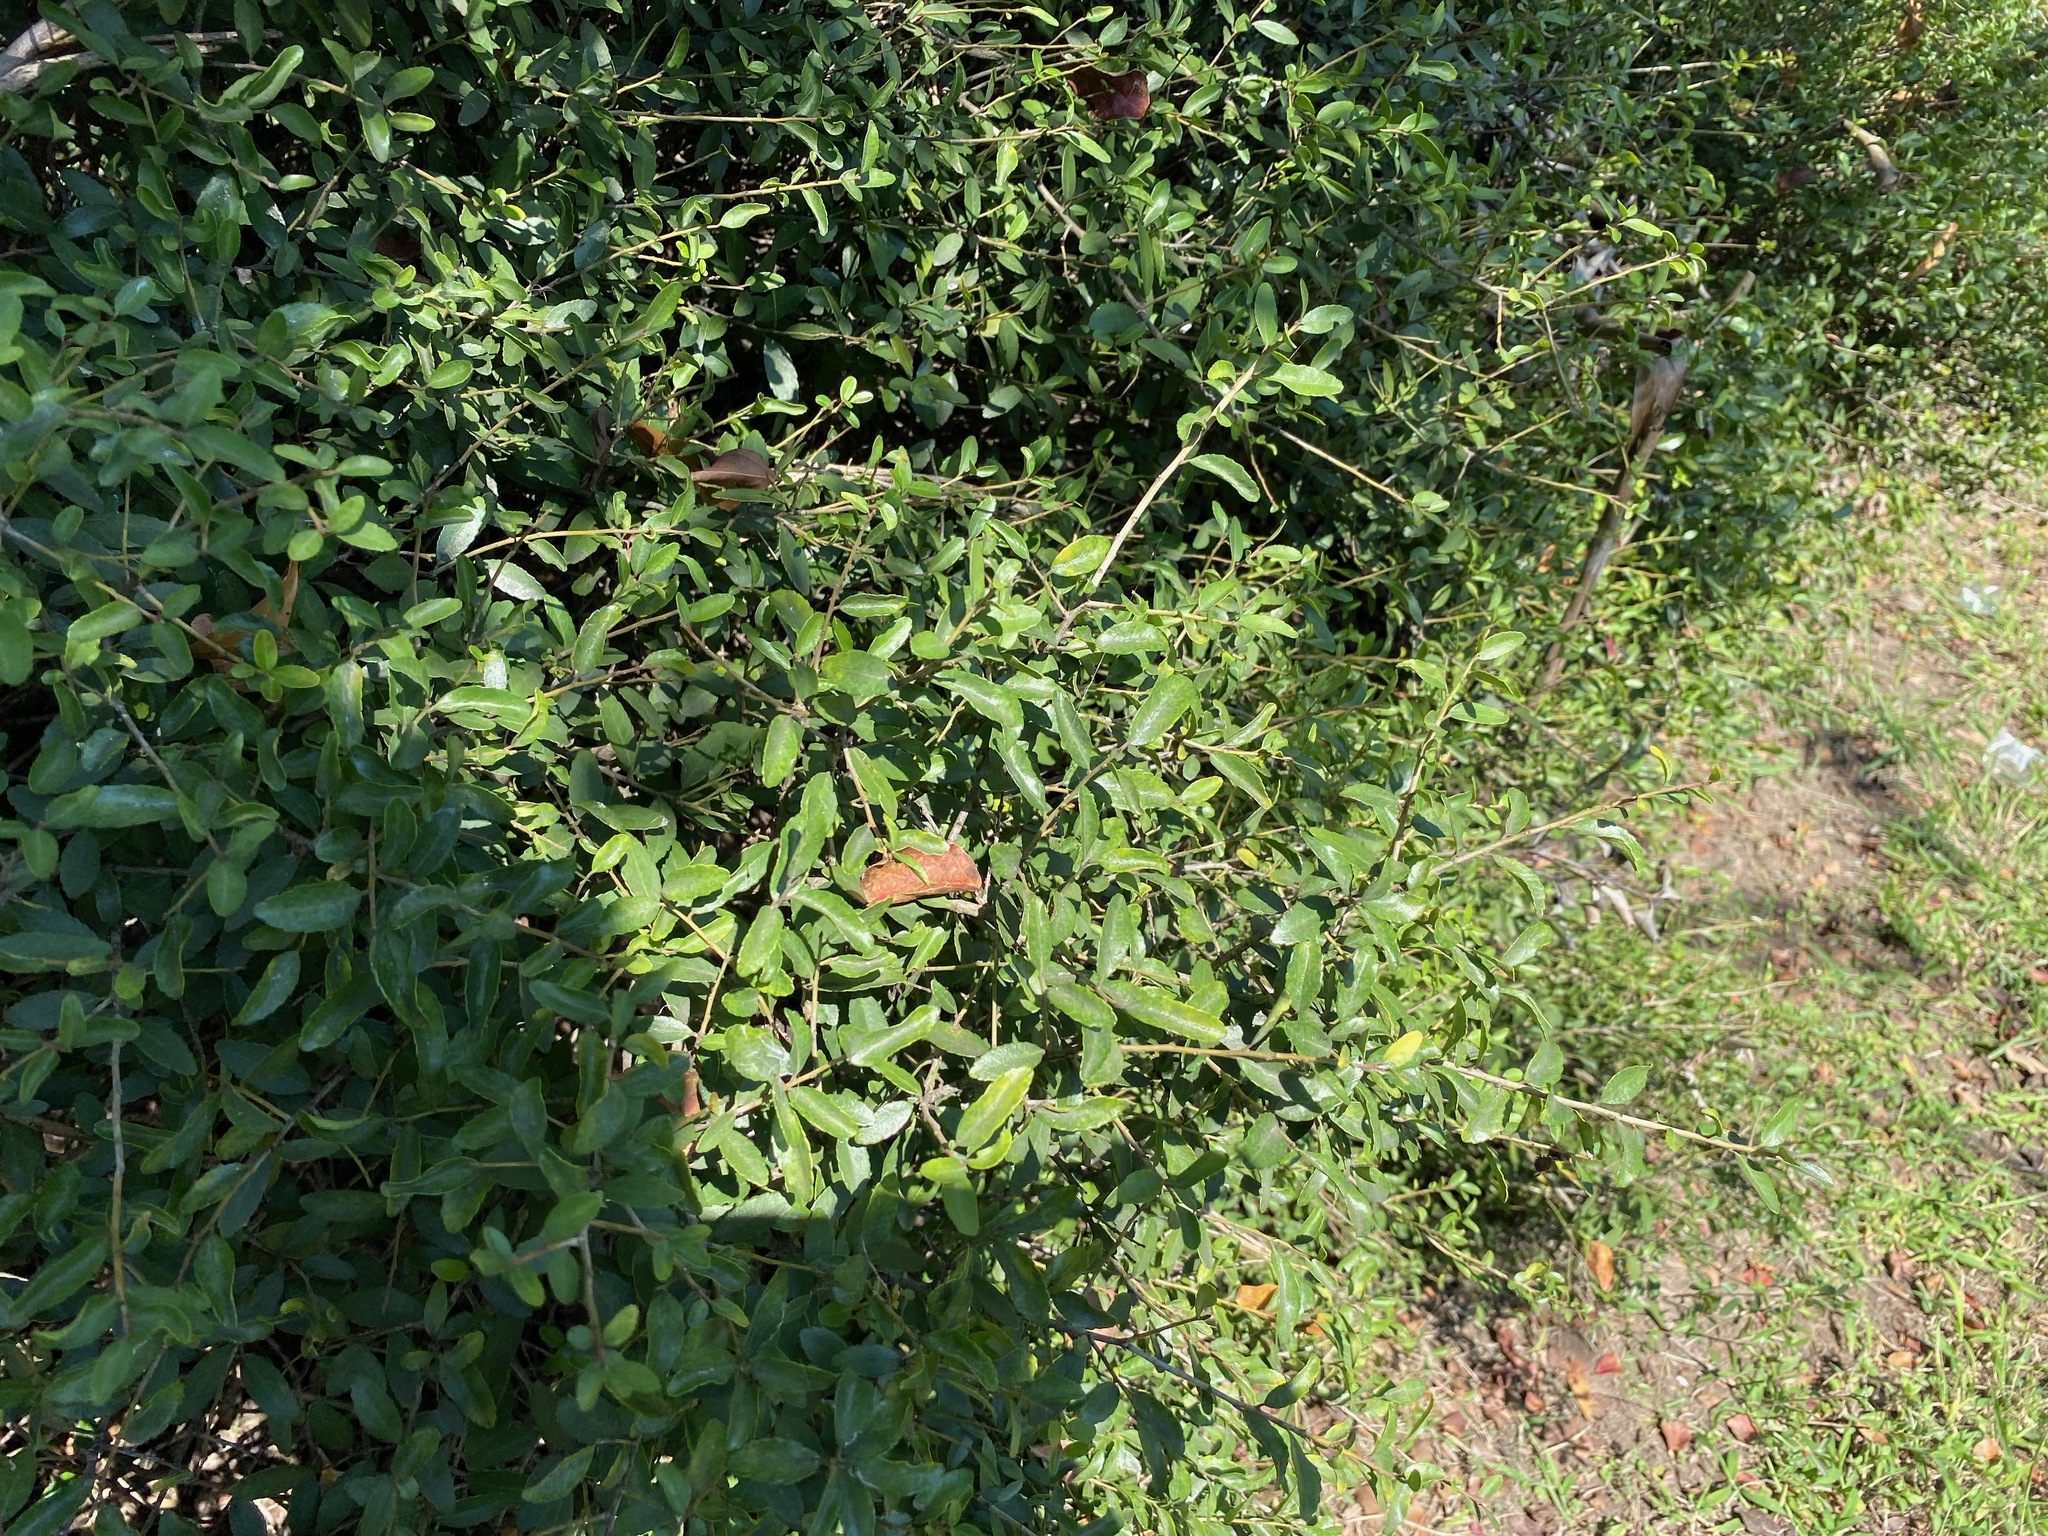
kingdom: Plantae
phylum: Tracheophyta
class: Magnoliopsida
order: Aquifoliales
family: Aquifoliaceae
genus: Ilex
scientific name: Ilex vomitoria
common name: Yaupon holly
